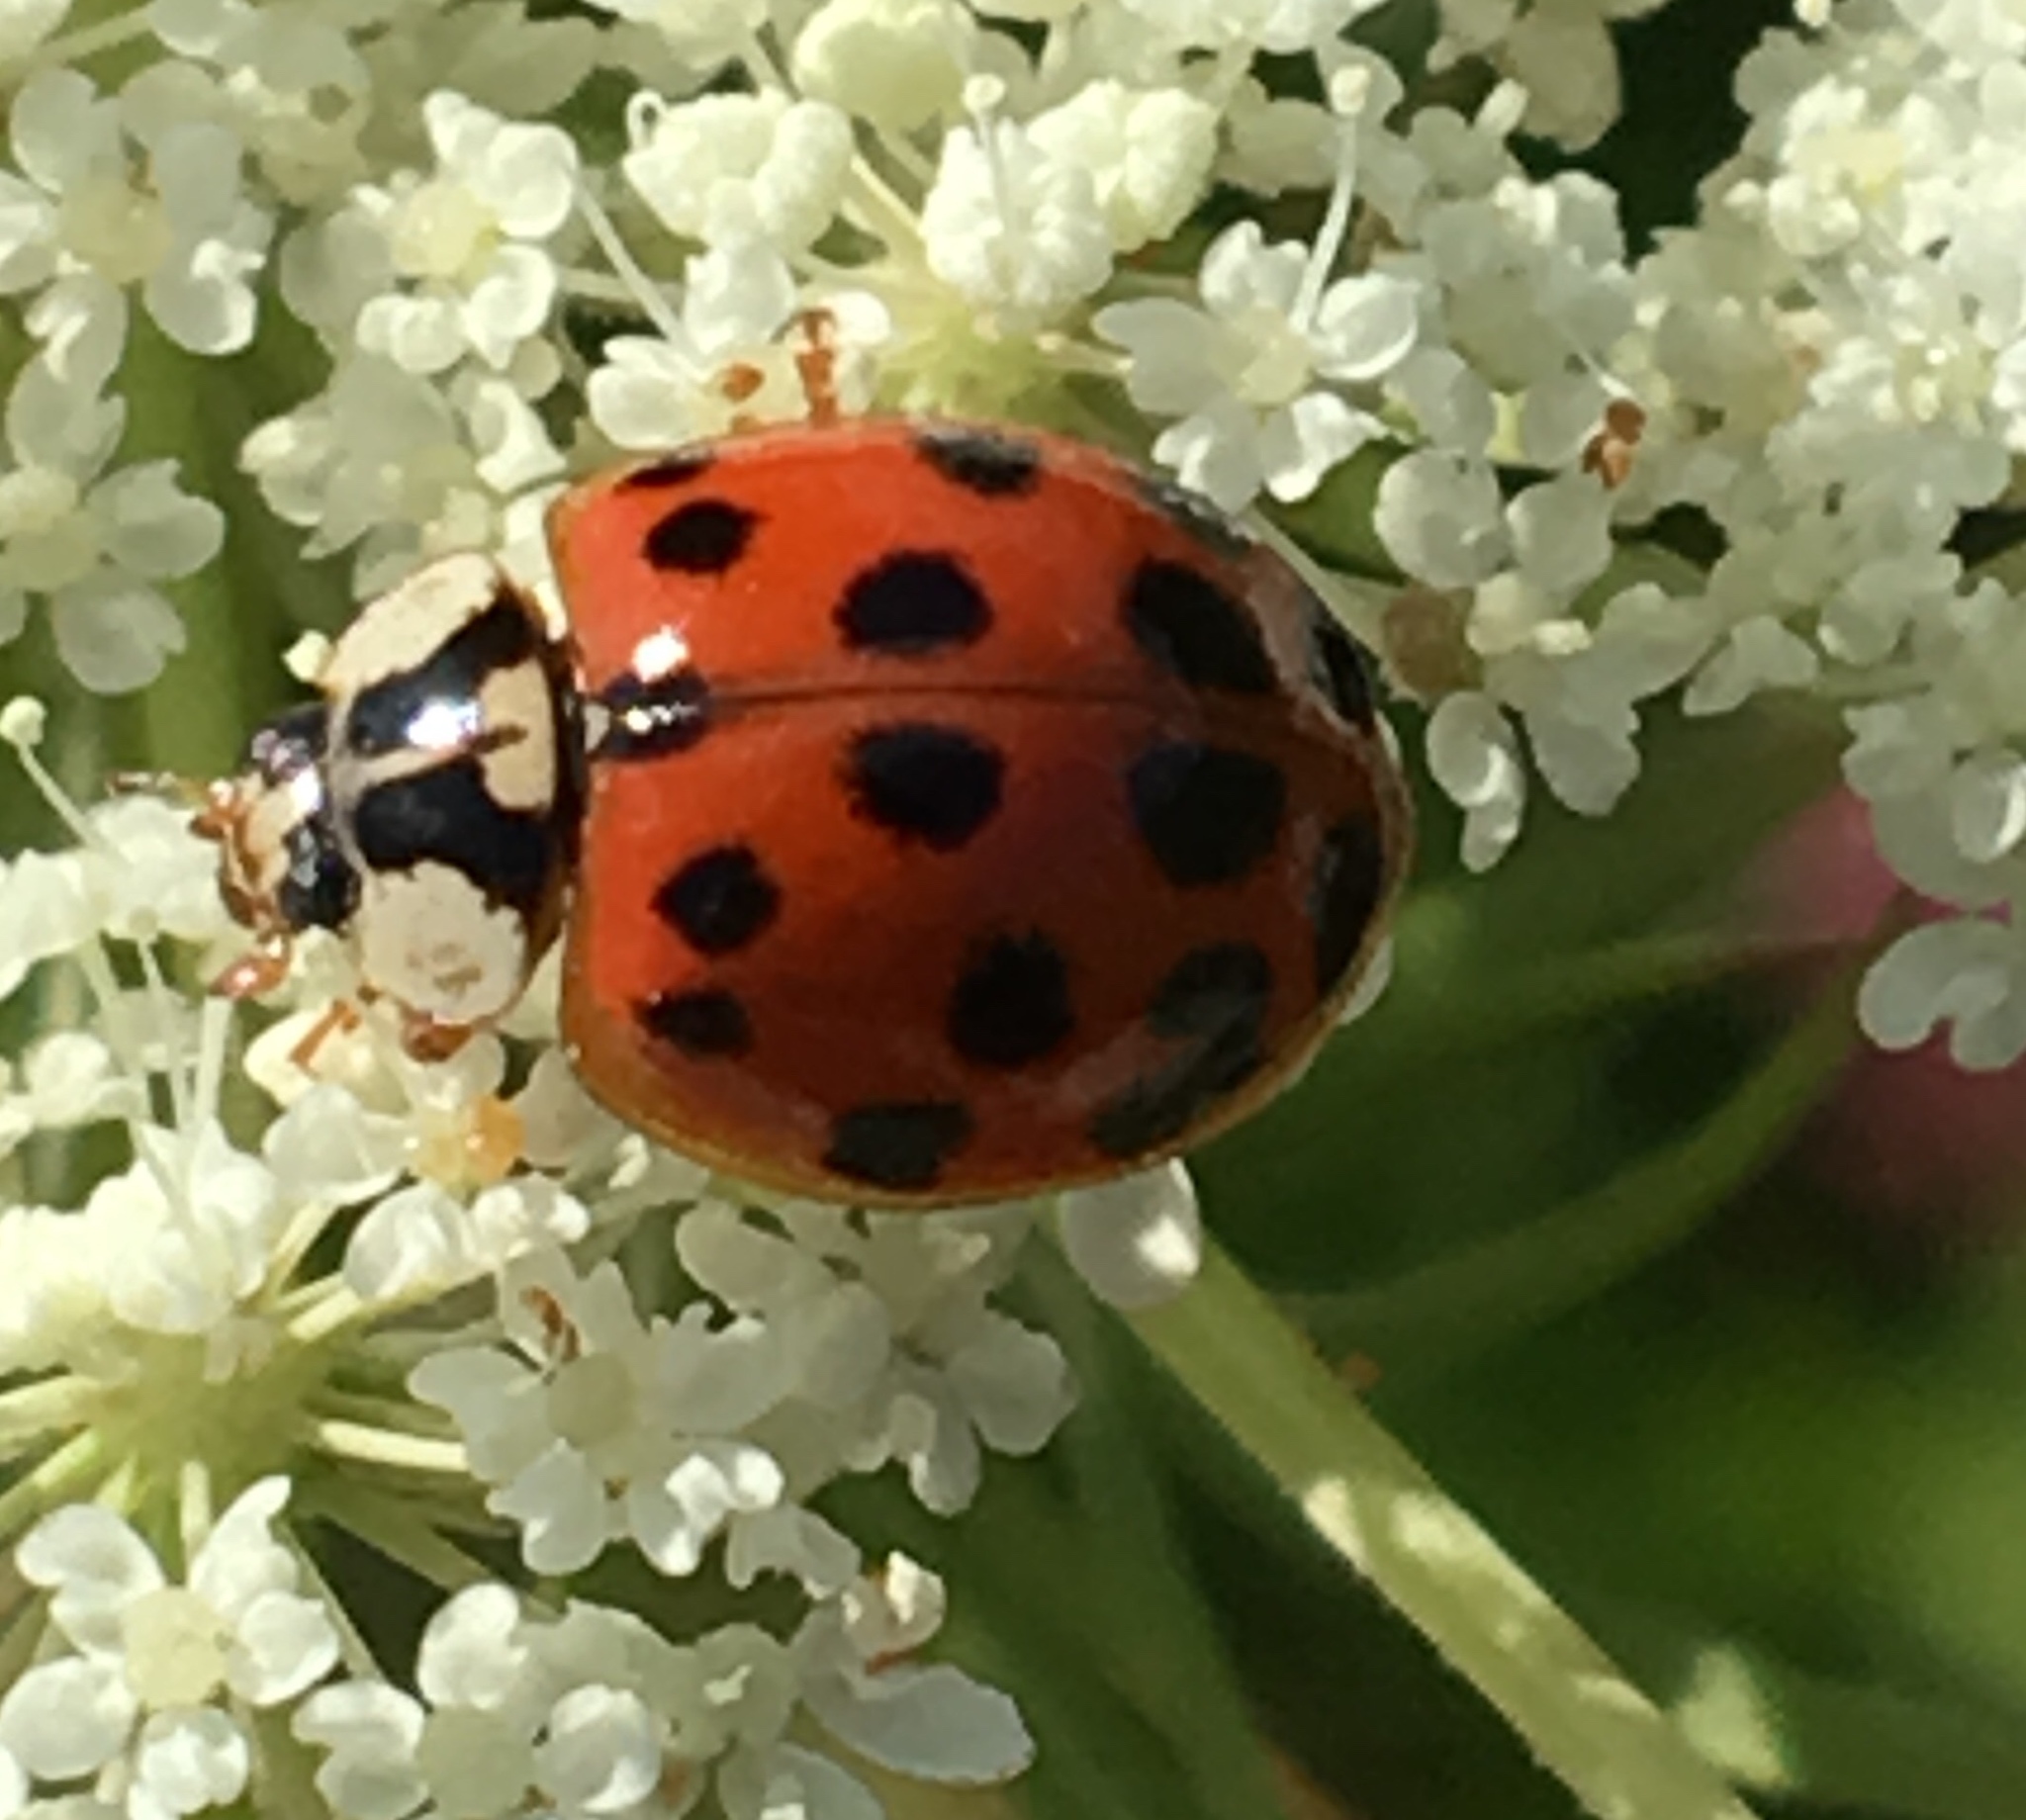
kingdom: Animalia
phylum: Arthropoda
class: Insecta
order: Coleoptera
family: Coccinellidae
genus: Harmonia
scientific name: Harmonia axyridis
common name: Harlequin ladybird
